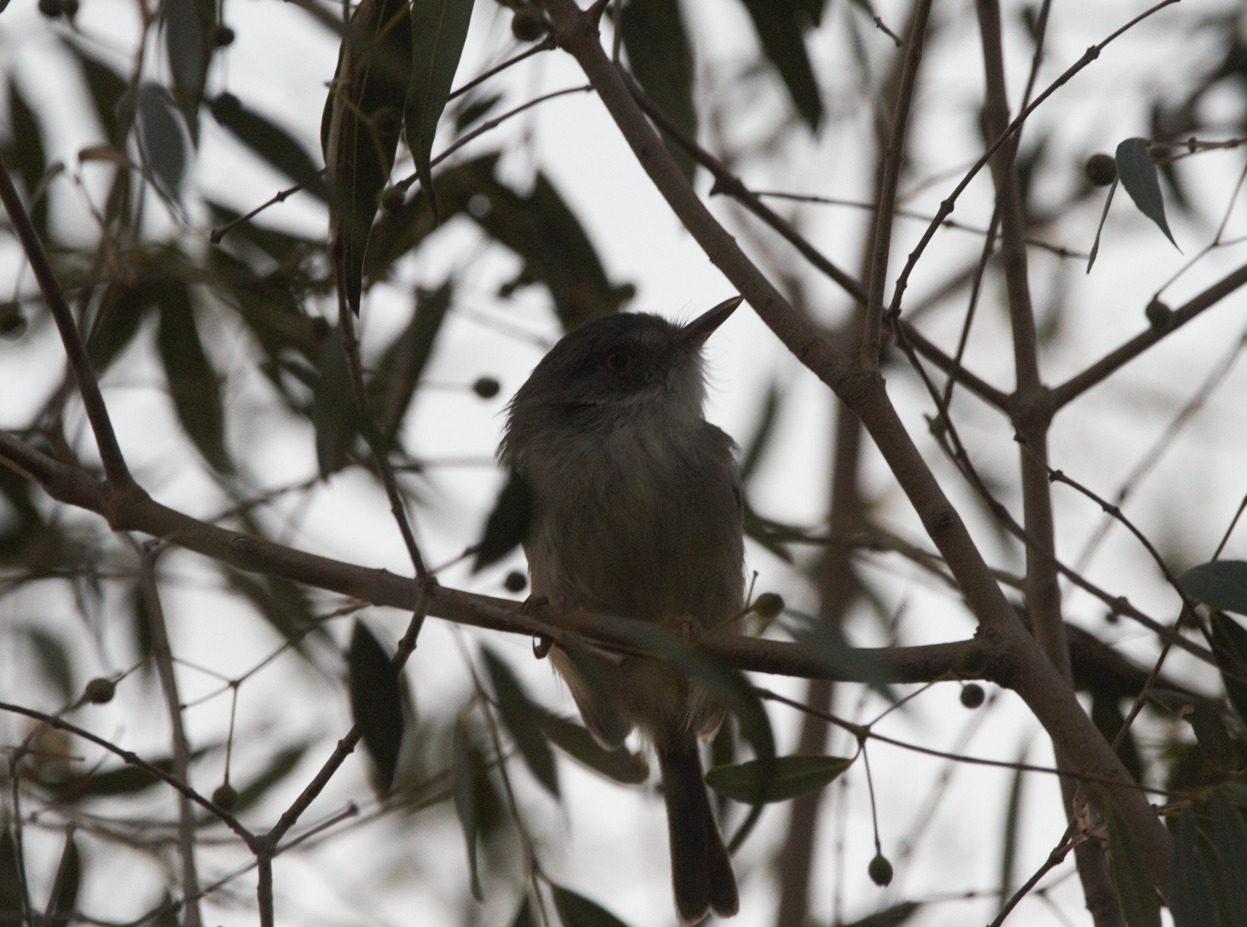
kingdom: Animalia
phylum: Chordata
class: Aves
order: Passeriformes
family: Tyrannidae
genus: Hemitriccus
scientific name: Hemitriccus margaritaceiventer
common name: Pearly-vented tody-tyrant
